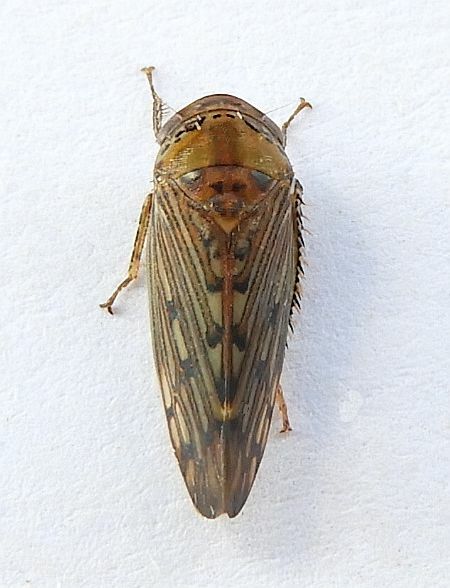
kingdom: Animalia
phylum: Arthropoda
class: Insecta
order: Hemiptera
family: Cicadellidae
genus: Marganana
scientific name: Marganana suilla
